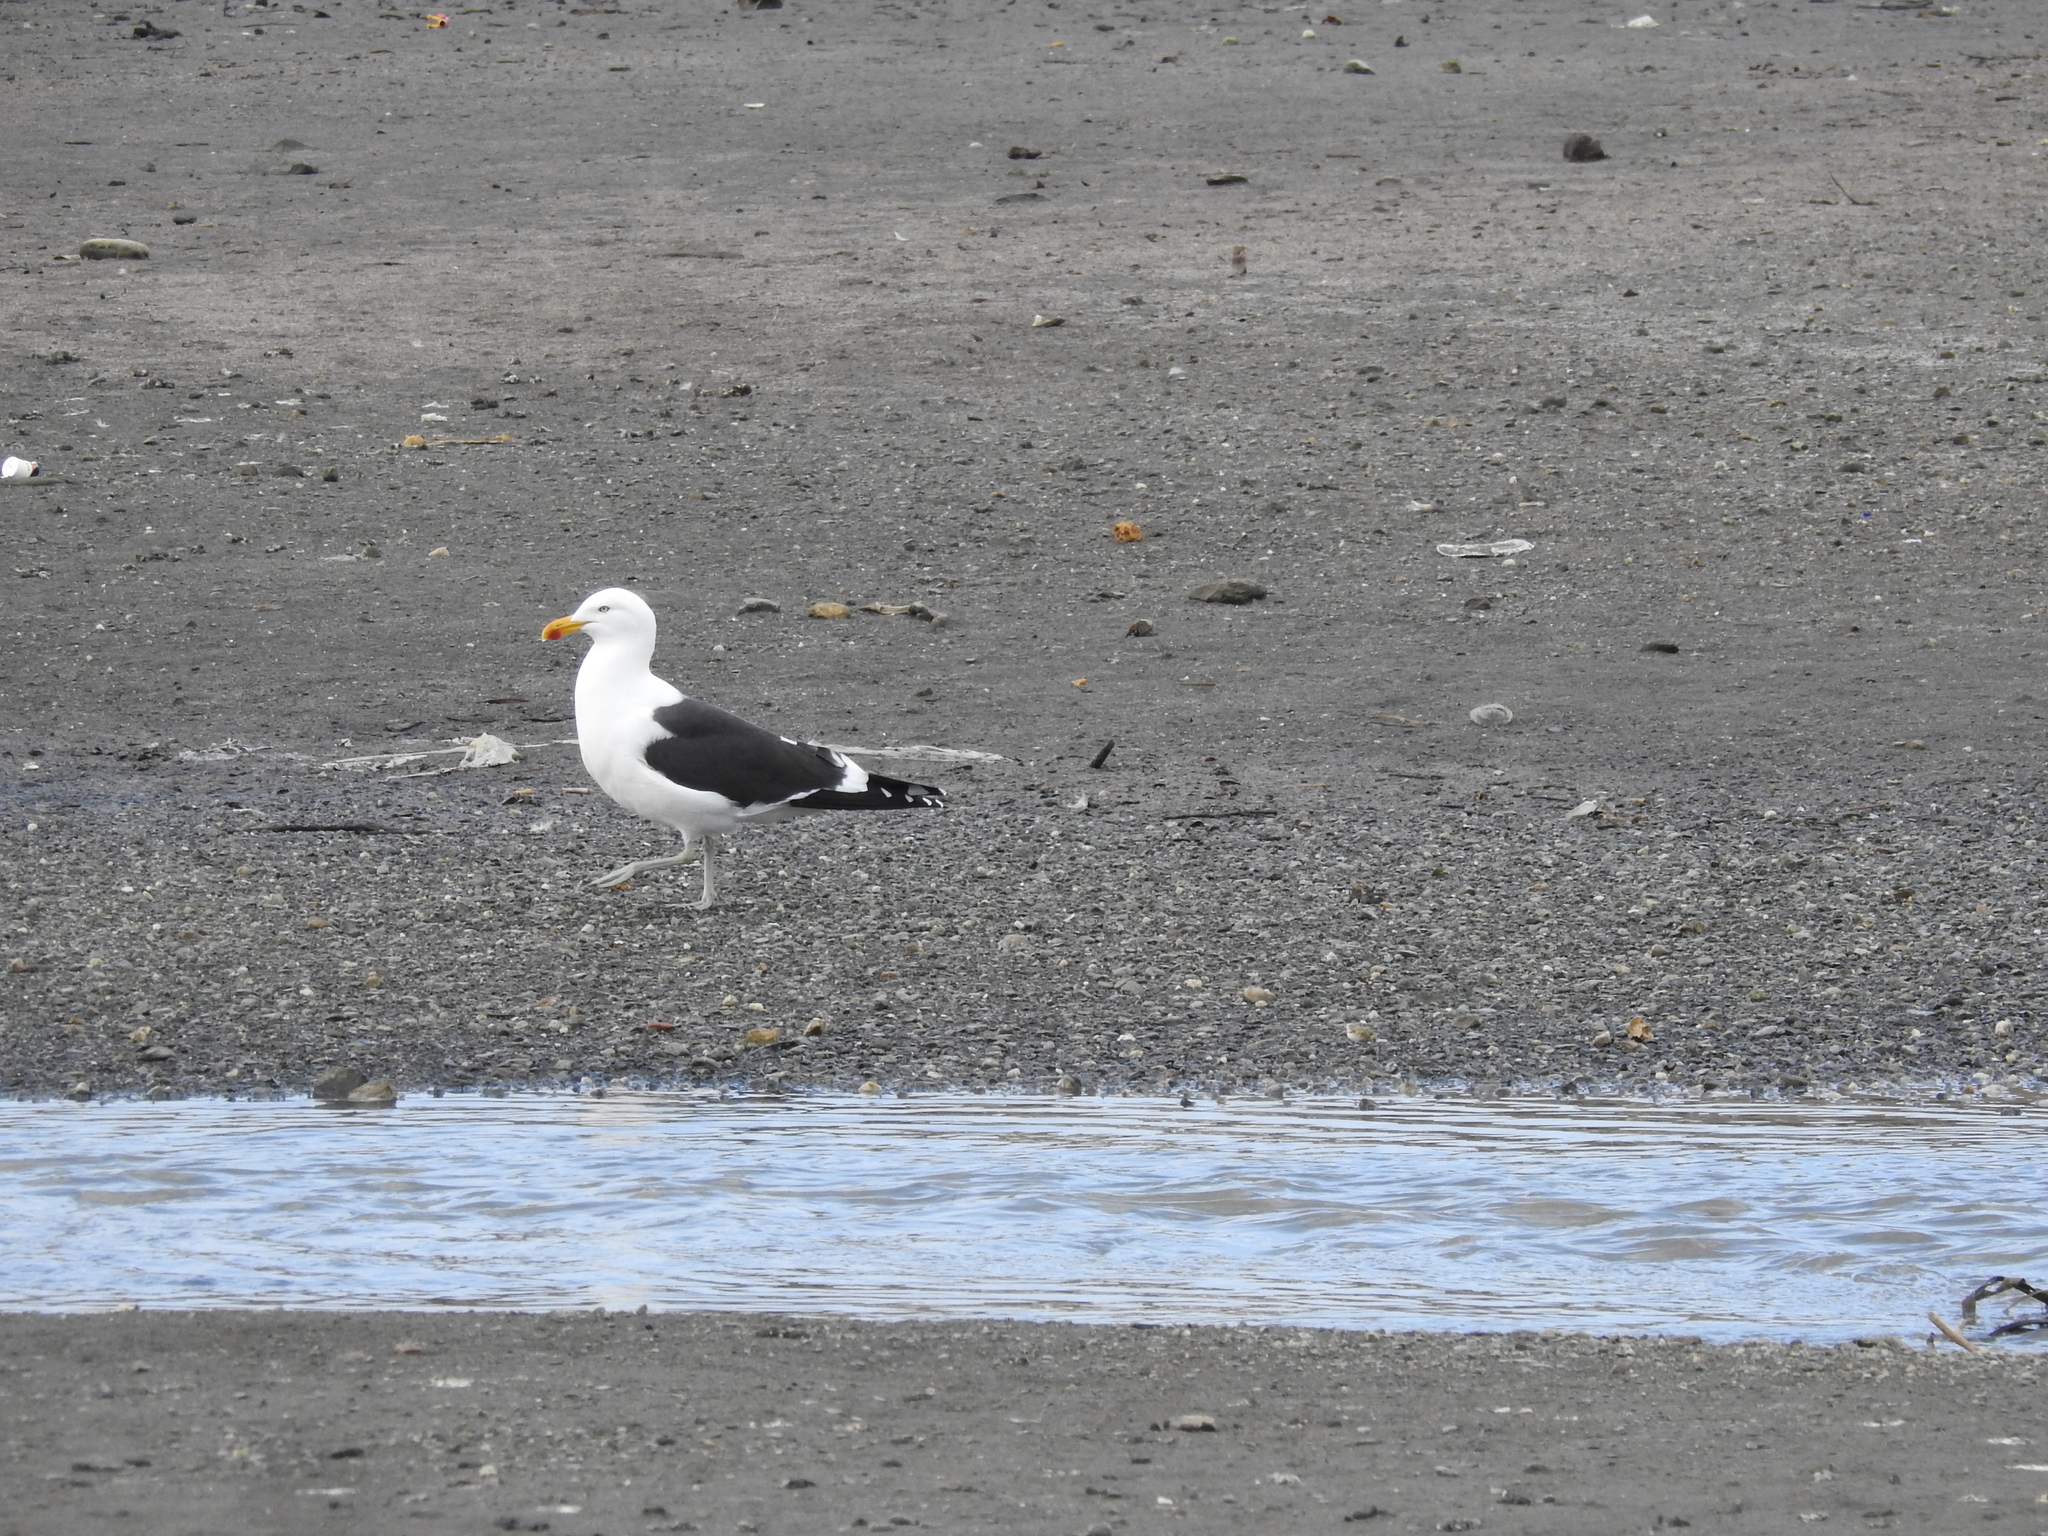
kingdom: Animalia
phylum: Chordata
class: Aves
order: Charadriiformes
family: Laridae
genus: Larus
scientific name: Larus dominicanus
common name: Kelp gull
